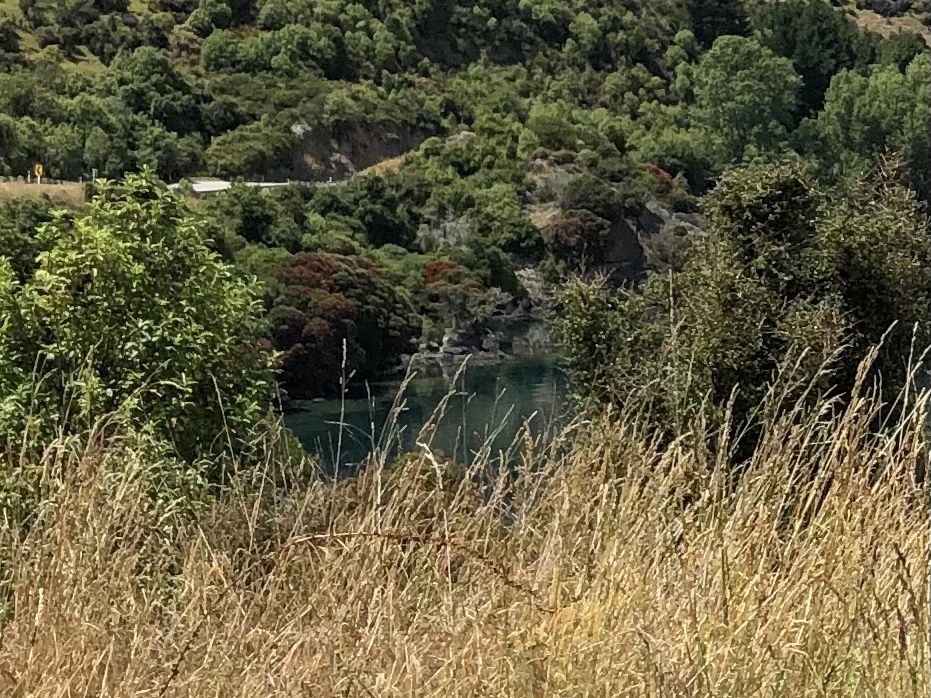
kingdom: Plantae
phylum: Tracheophyta
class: Magnoliopsida
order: Myrtales
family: Myrtaceae
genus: Metrosideros
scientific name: Metrosideros umbellata
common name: Southern rata
